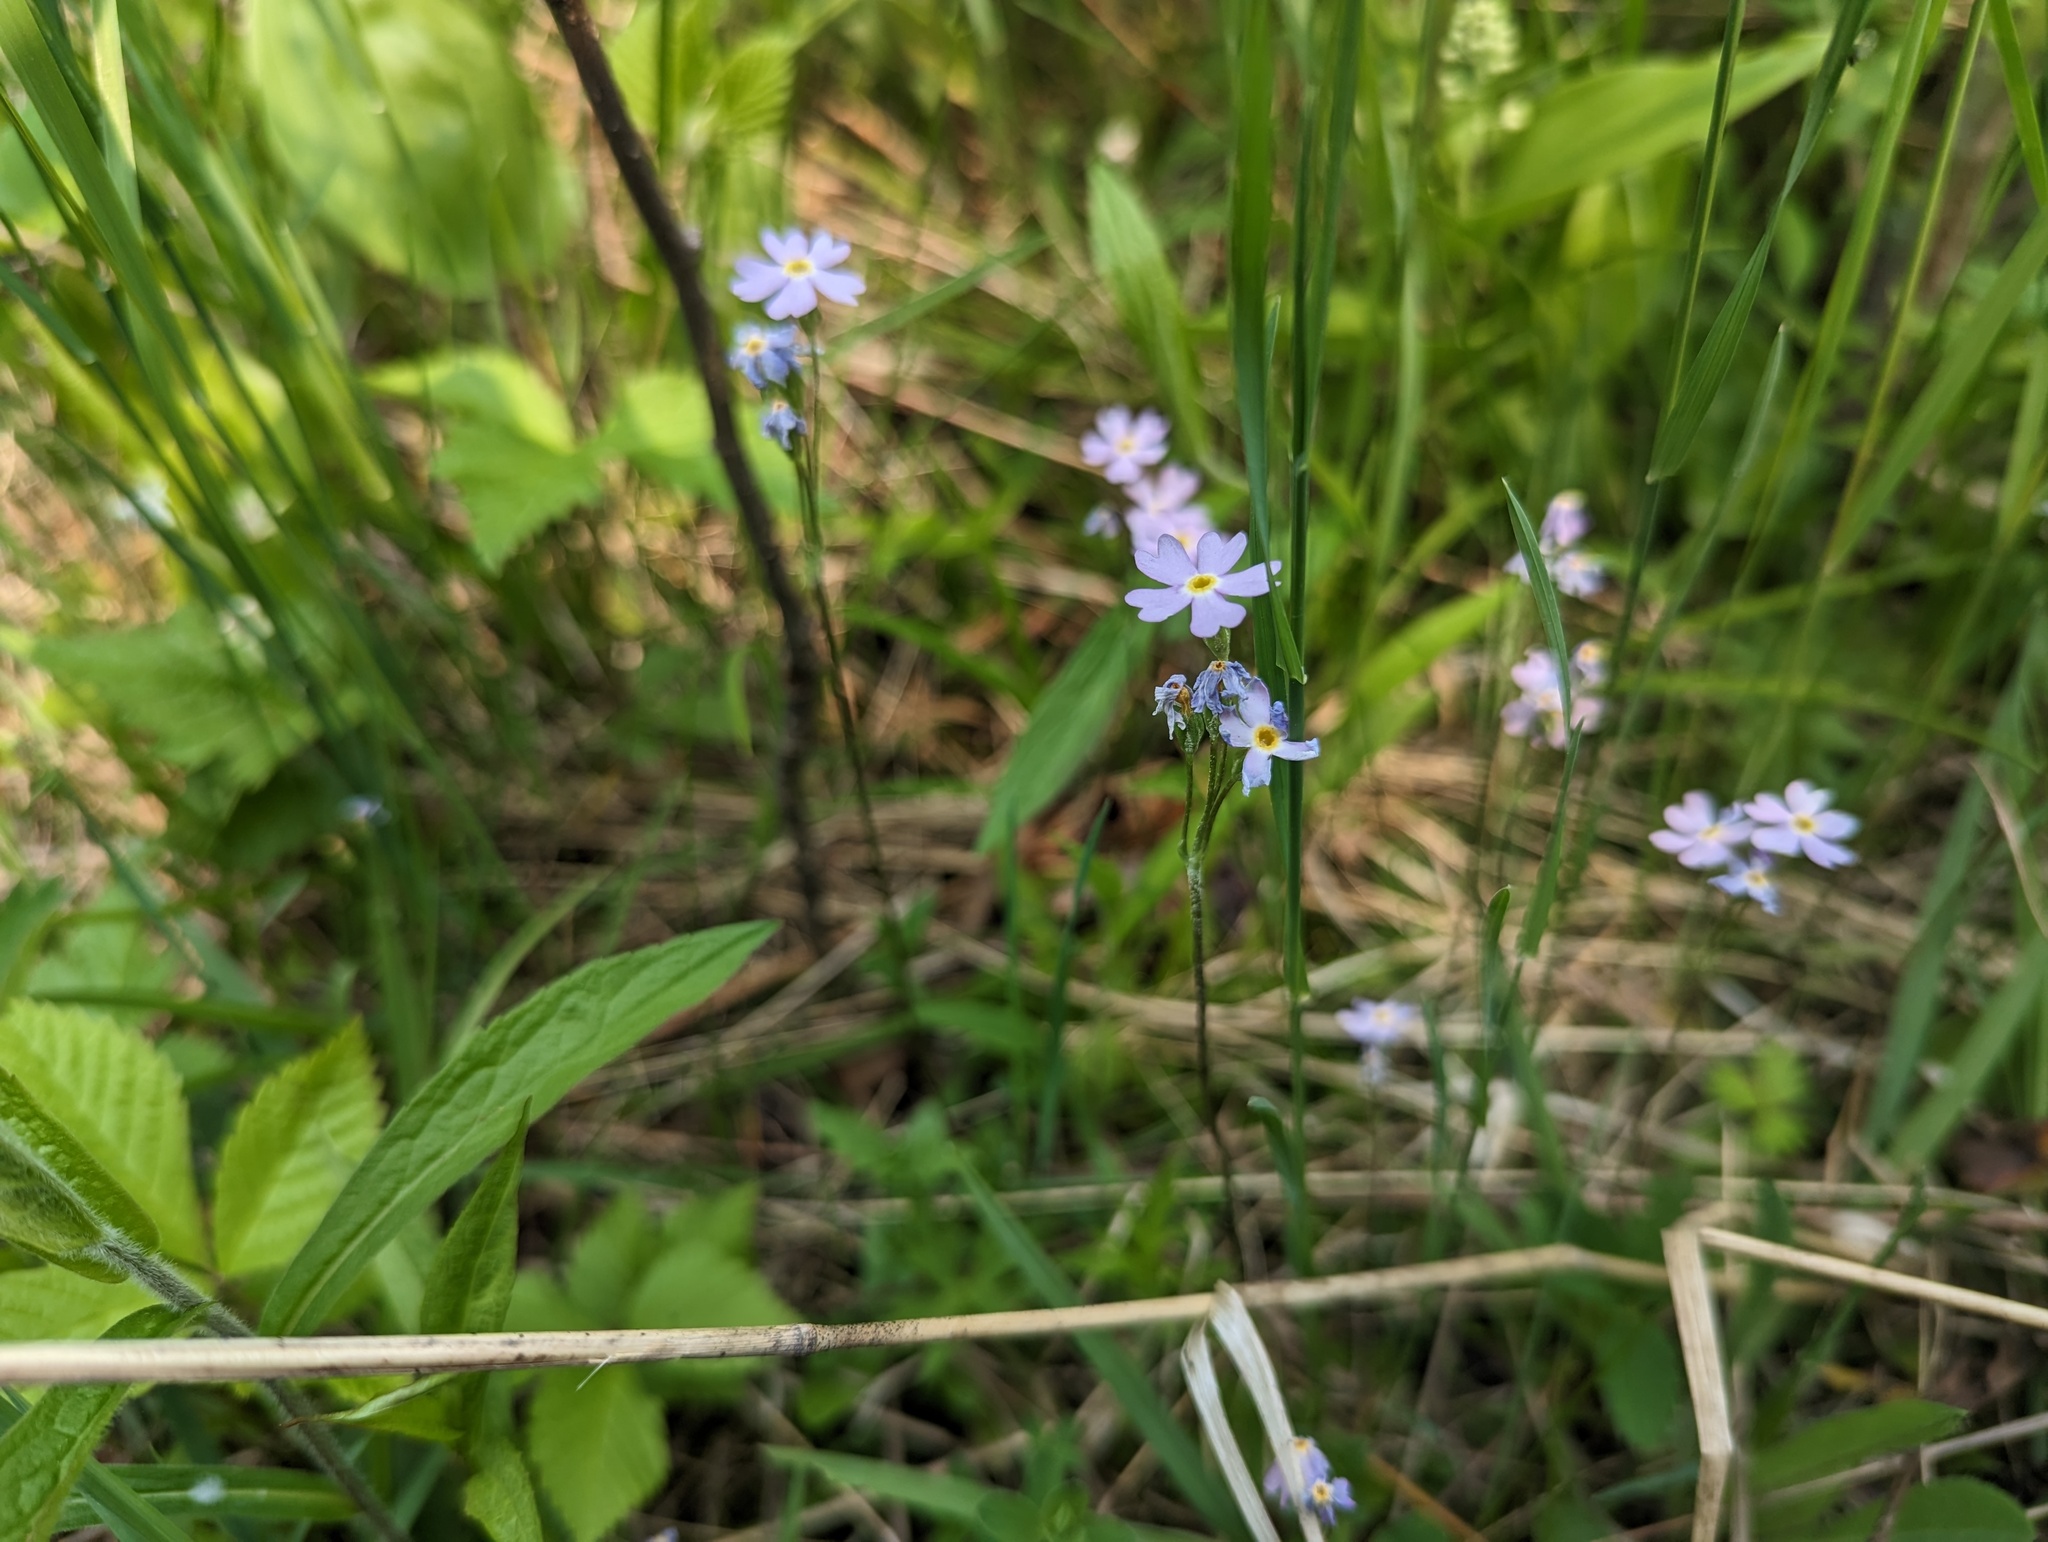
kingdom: Plantae
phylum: Tracheophyta
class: Magnoliopsida
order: Ericales
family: Primulaceae
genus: Primula
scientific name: Primula mistassinica
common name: Bird's-eye primrose
